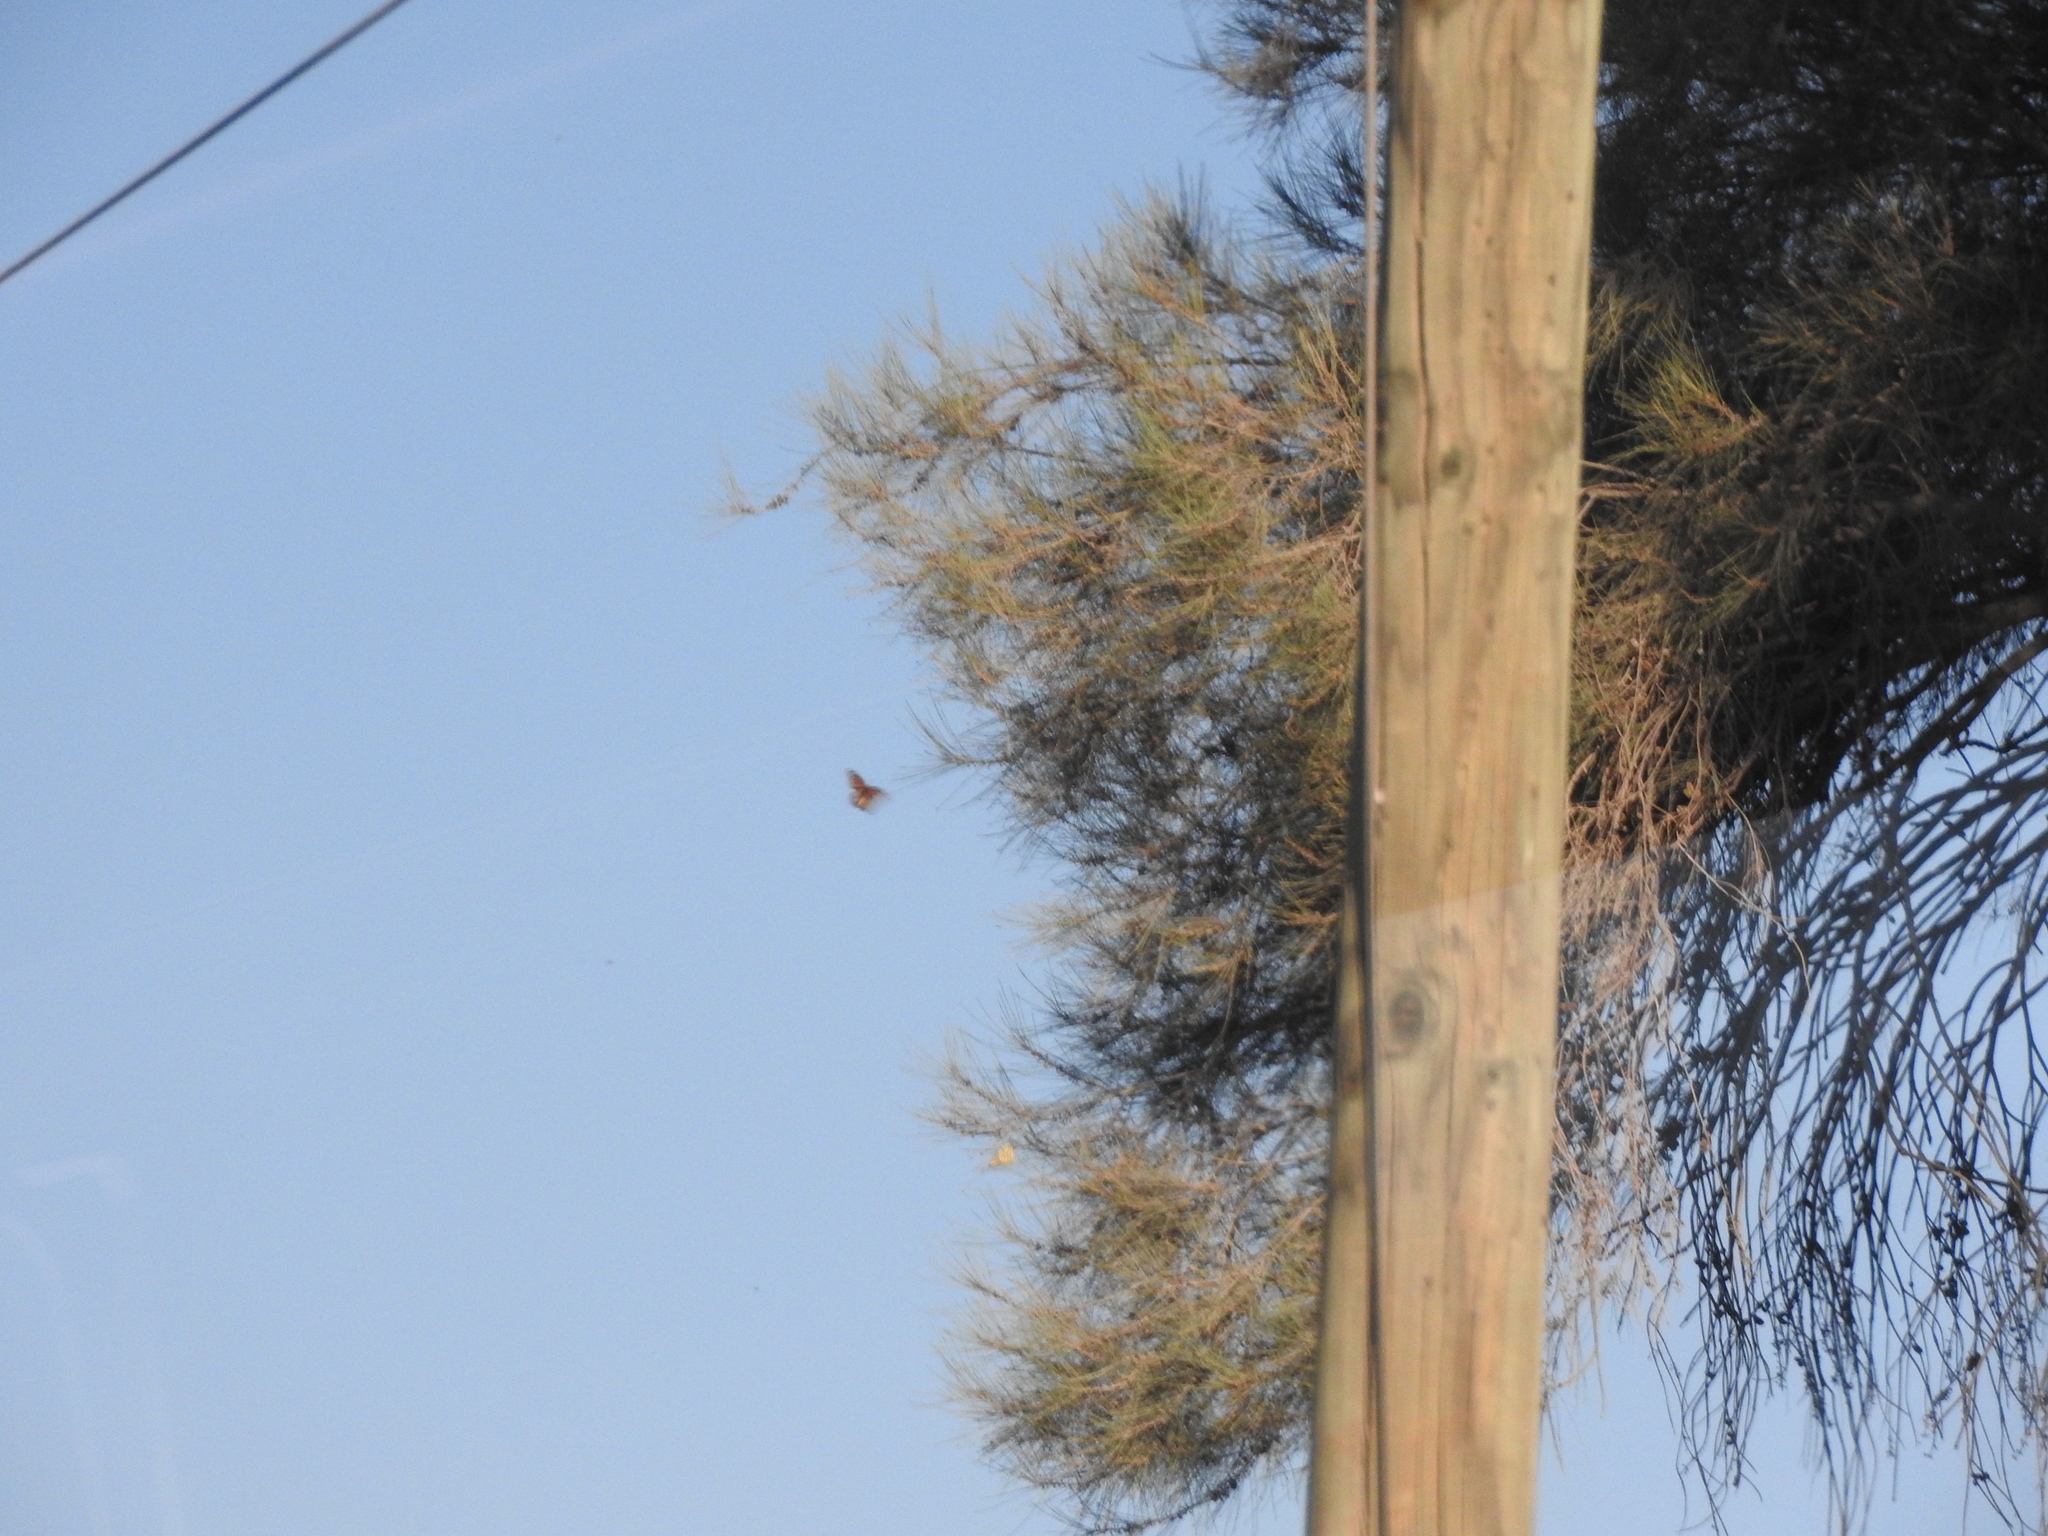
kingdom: Animalia
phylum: Arthropoda
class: Insecta
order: Lepidoptera
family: Nymphalidae
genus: Danaus
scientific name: Danaus plexippus
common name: Monarch
